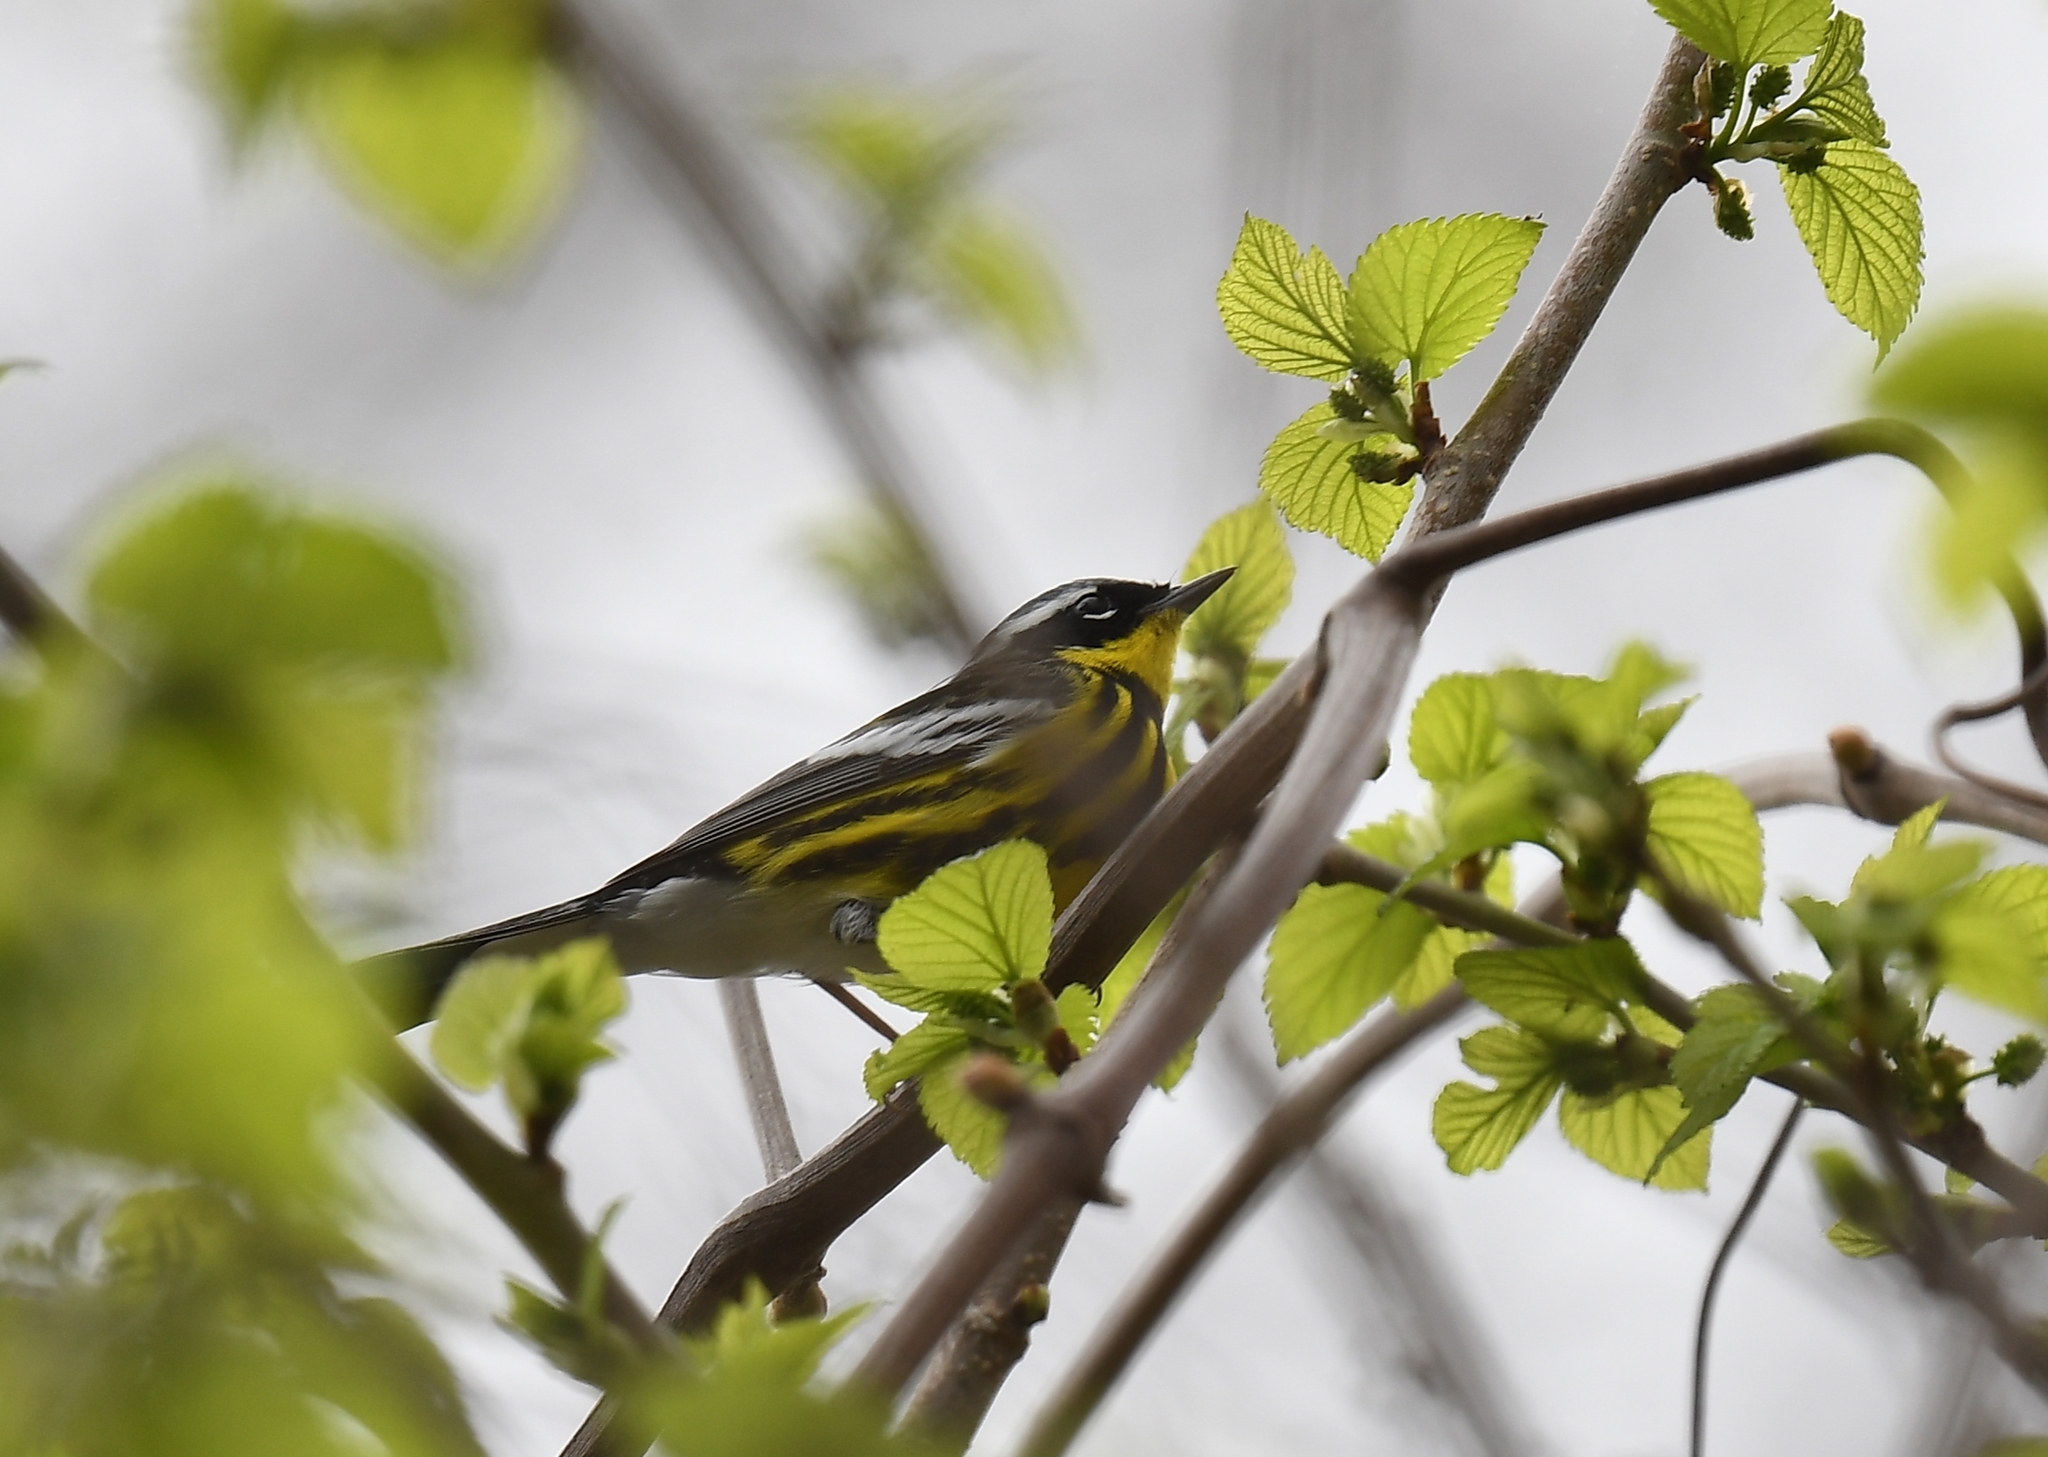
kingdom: Animalia
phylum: Chordata
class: Aves
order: Passeriformes
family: Parulidae
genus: Setophaga
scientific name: Setophaga magnolia
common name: Magnolia warbler
